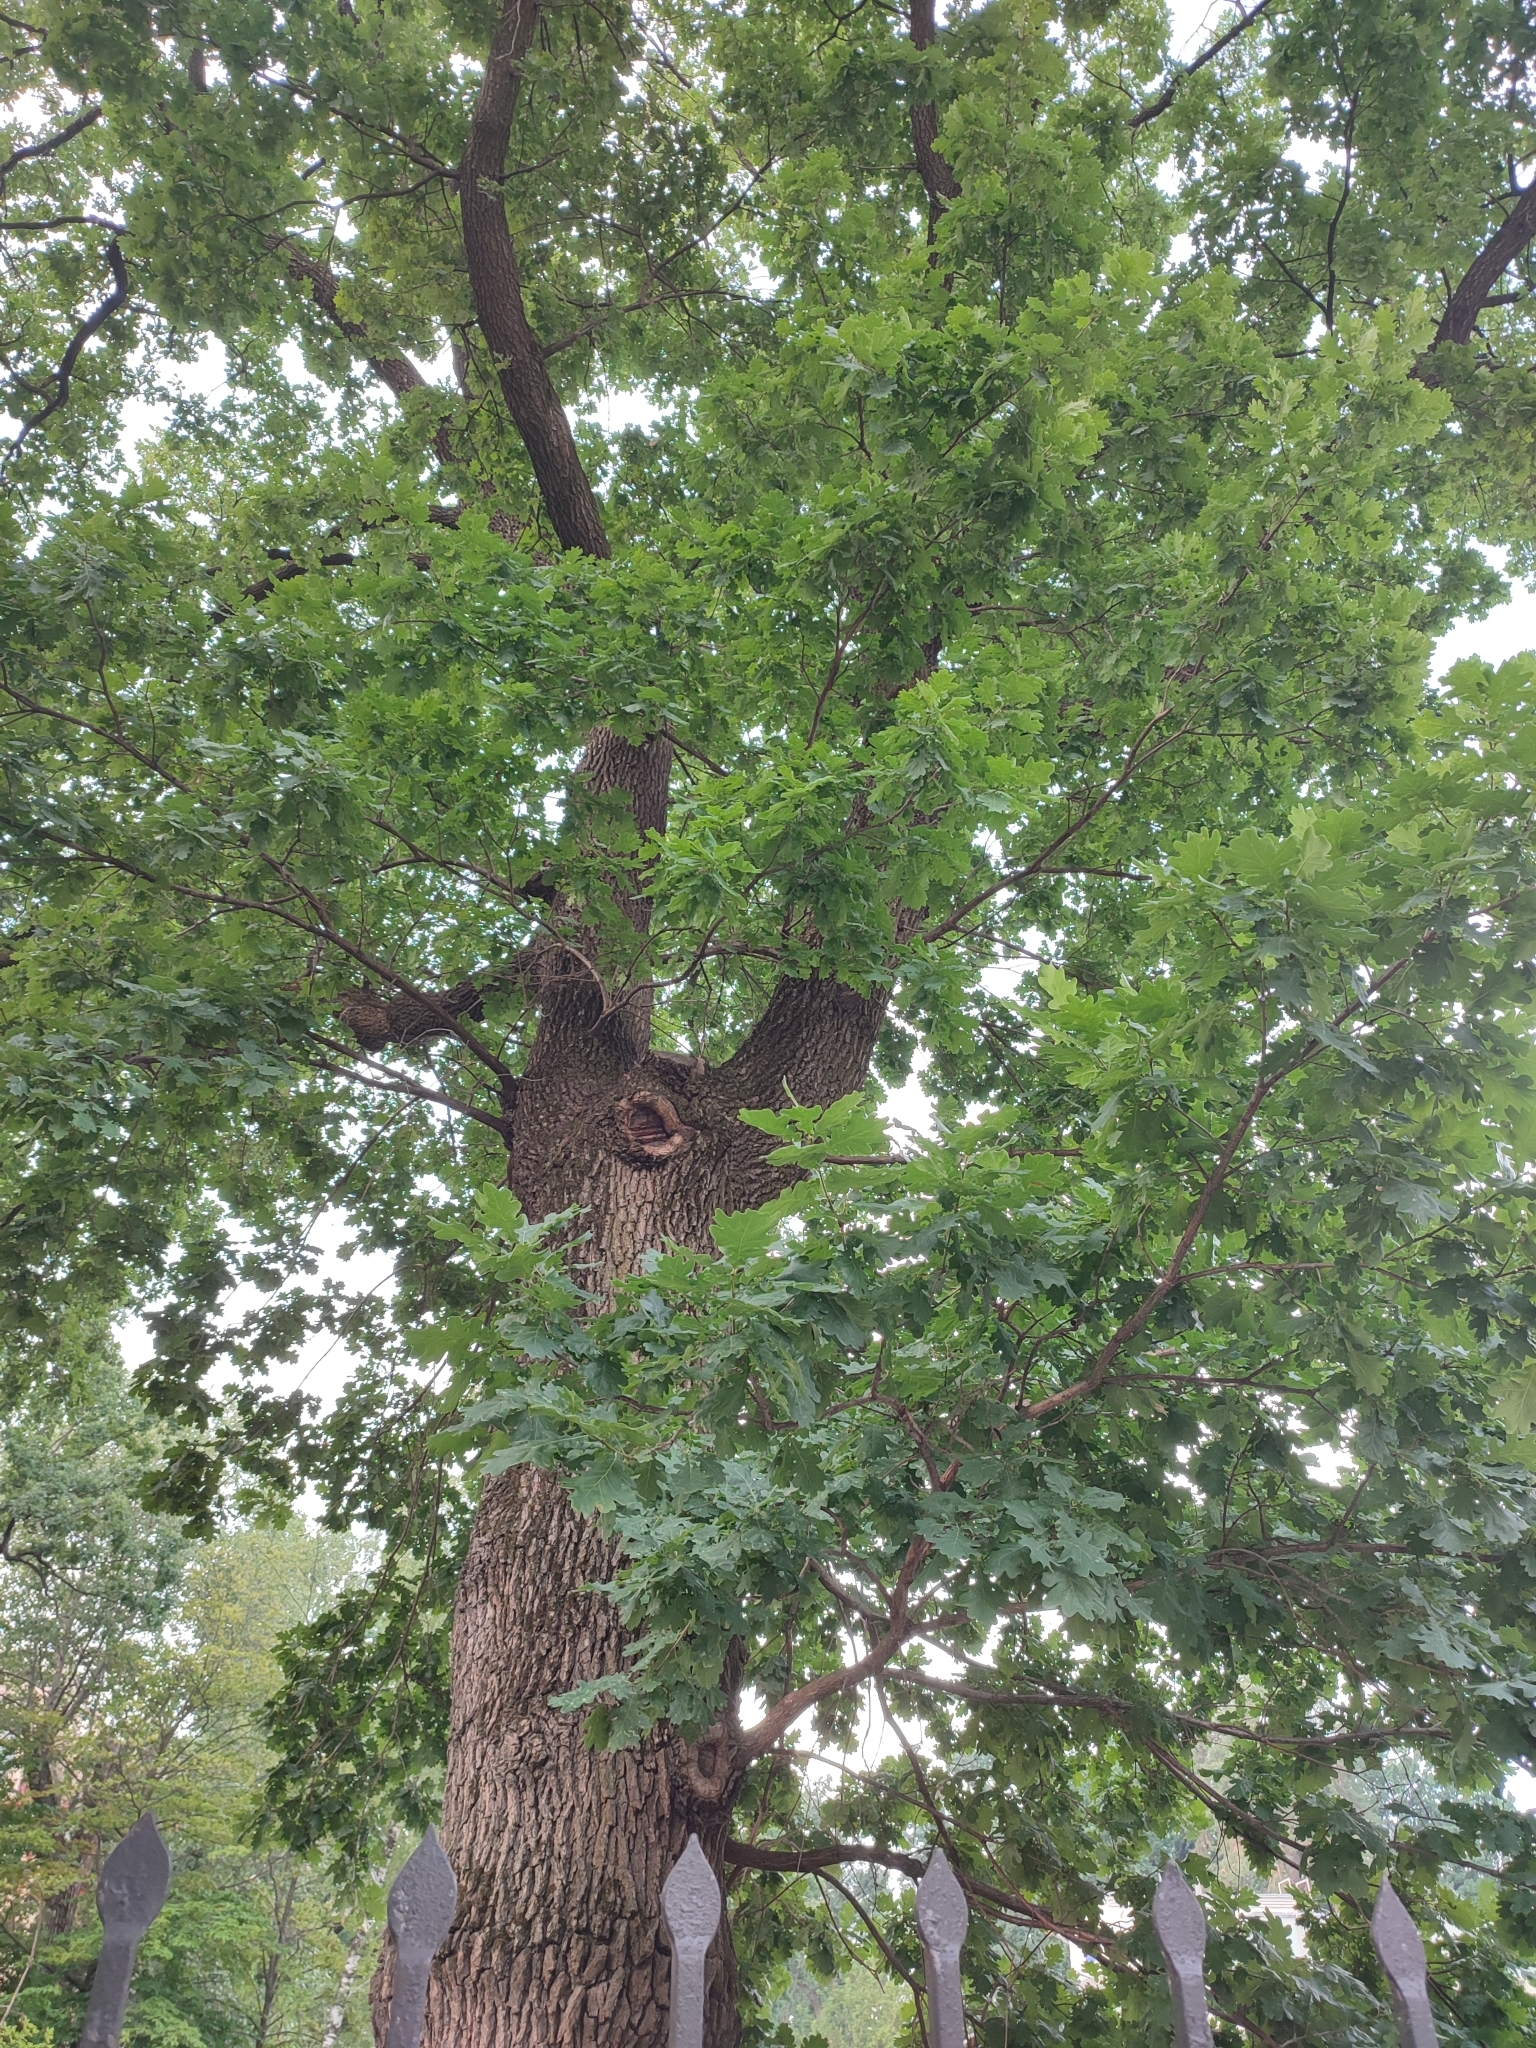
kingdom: Plantae
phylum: Tracheophyta
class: Magnoliopsida
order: Fagales
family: Fagaceae
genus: Quercus
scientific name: Quercus robur
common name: Pedunculate oak
